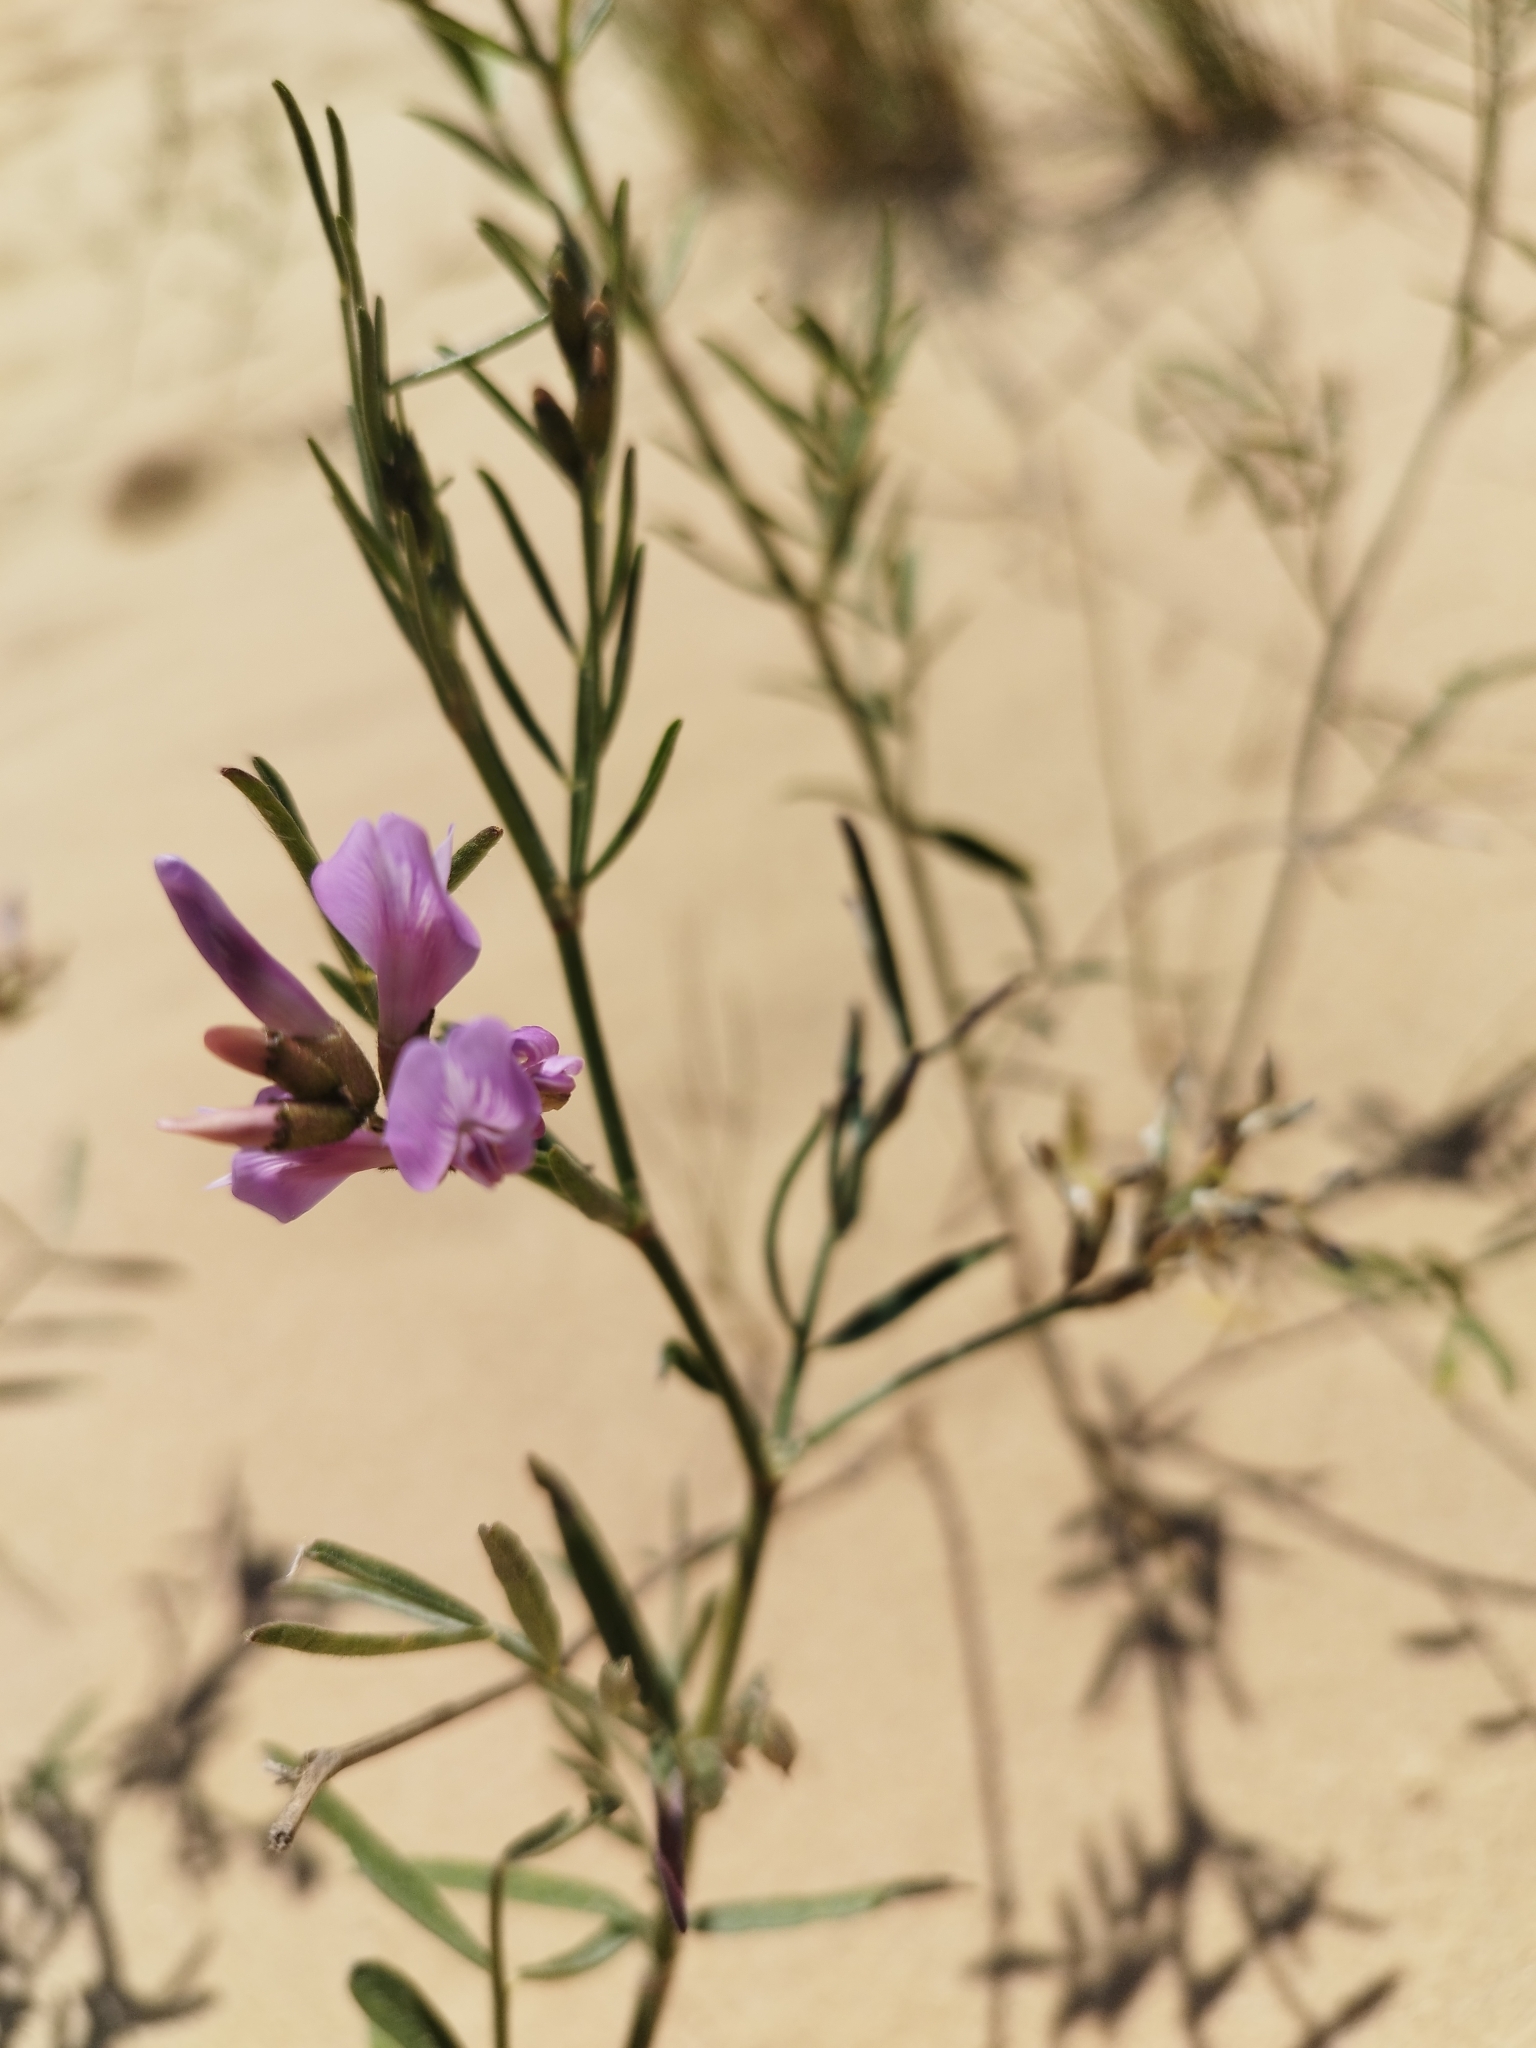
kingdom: Plantae
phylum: Tracheophyta
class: Magnoliopsida
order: Fabales
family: Fabaceae
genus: Astragalus
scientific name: Astragalus arenarius
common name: Arenarious milk-vetch
